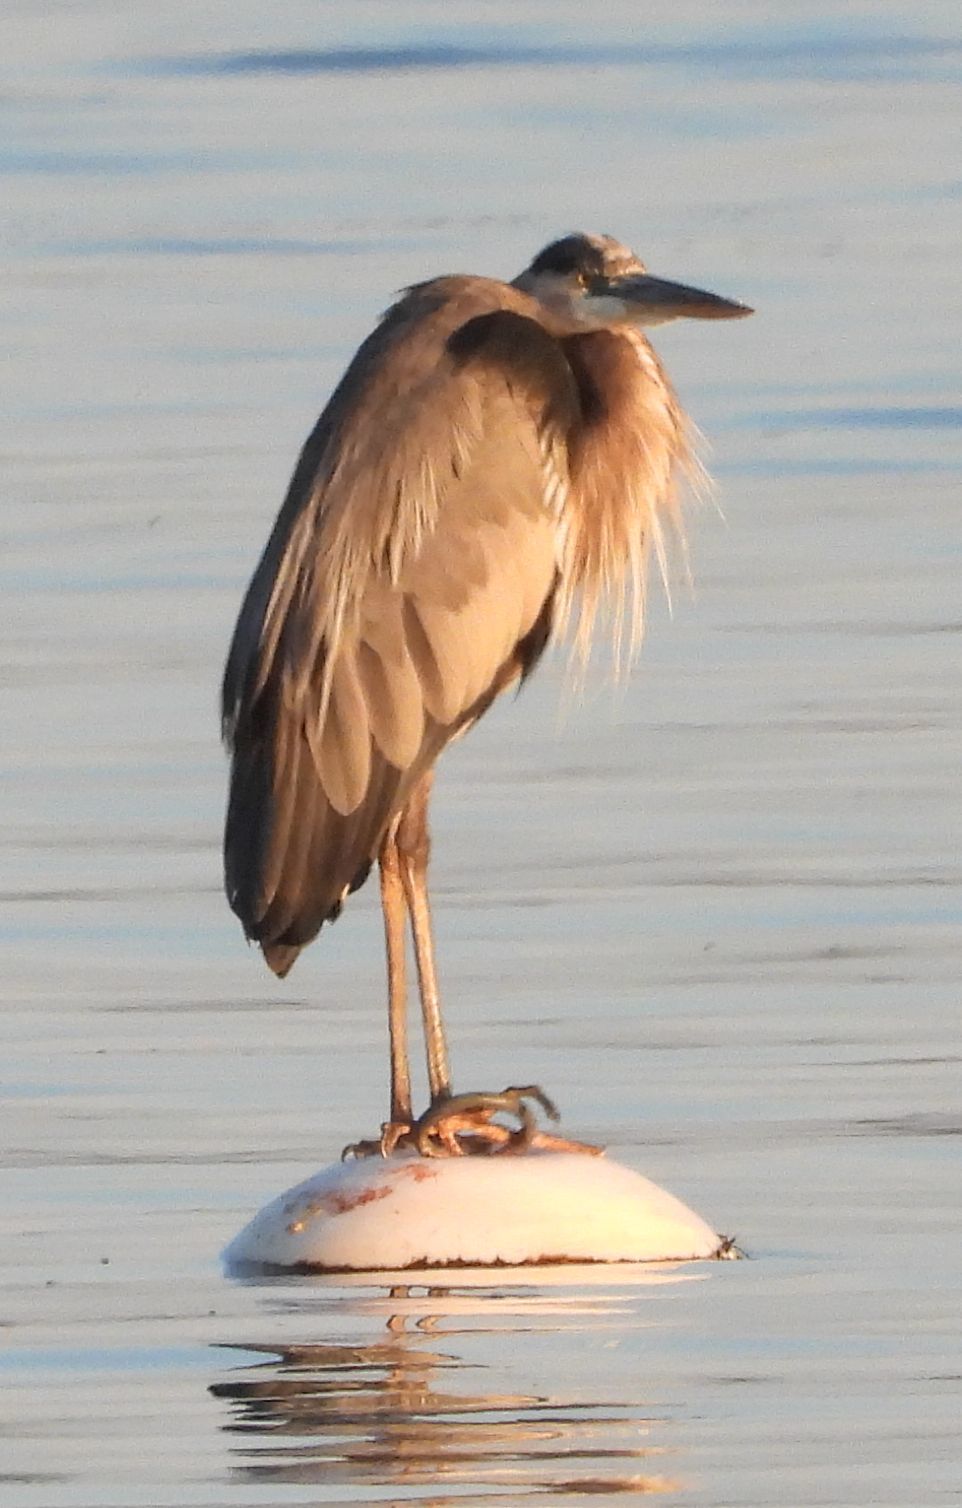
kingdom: Animalia
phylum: Chordata
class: Aves
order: Pelecaniformes
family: Ardeidae
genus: Ardea
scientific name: Ardea herodias
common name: Great blue heron
